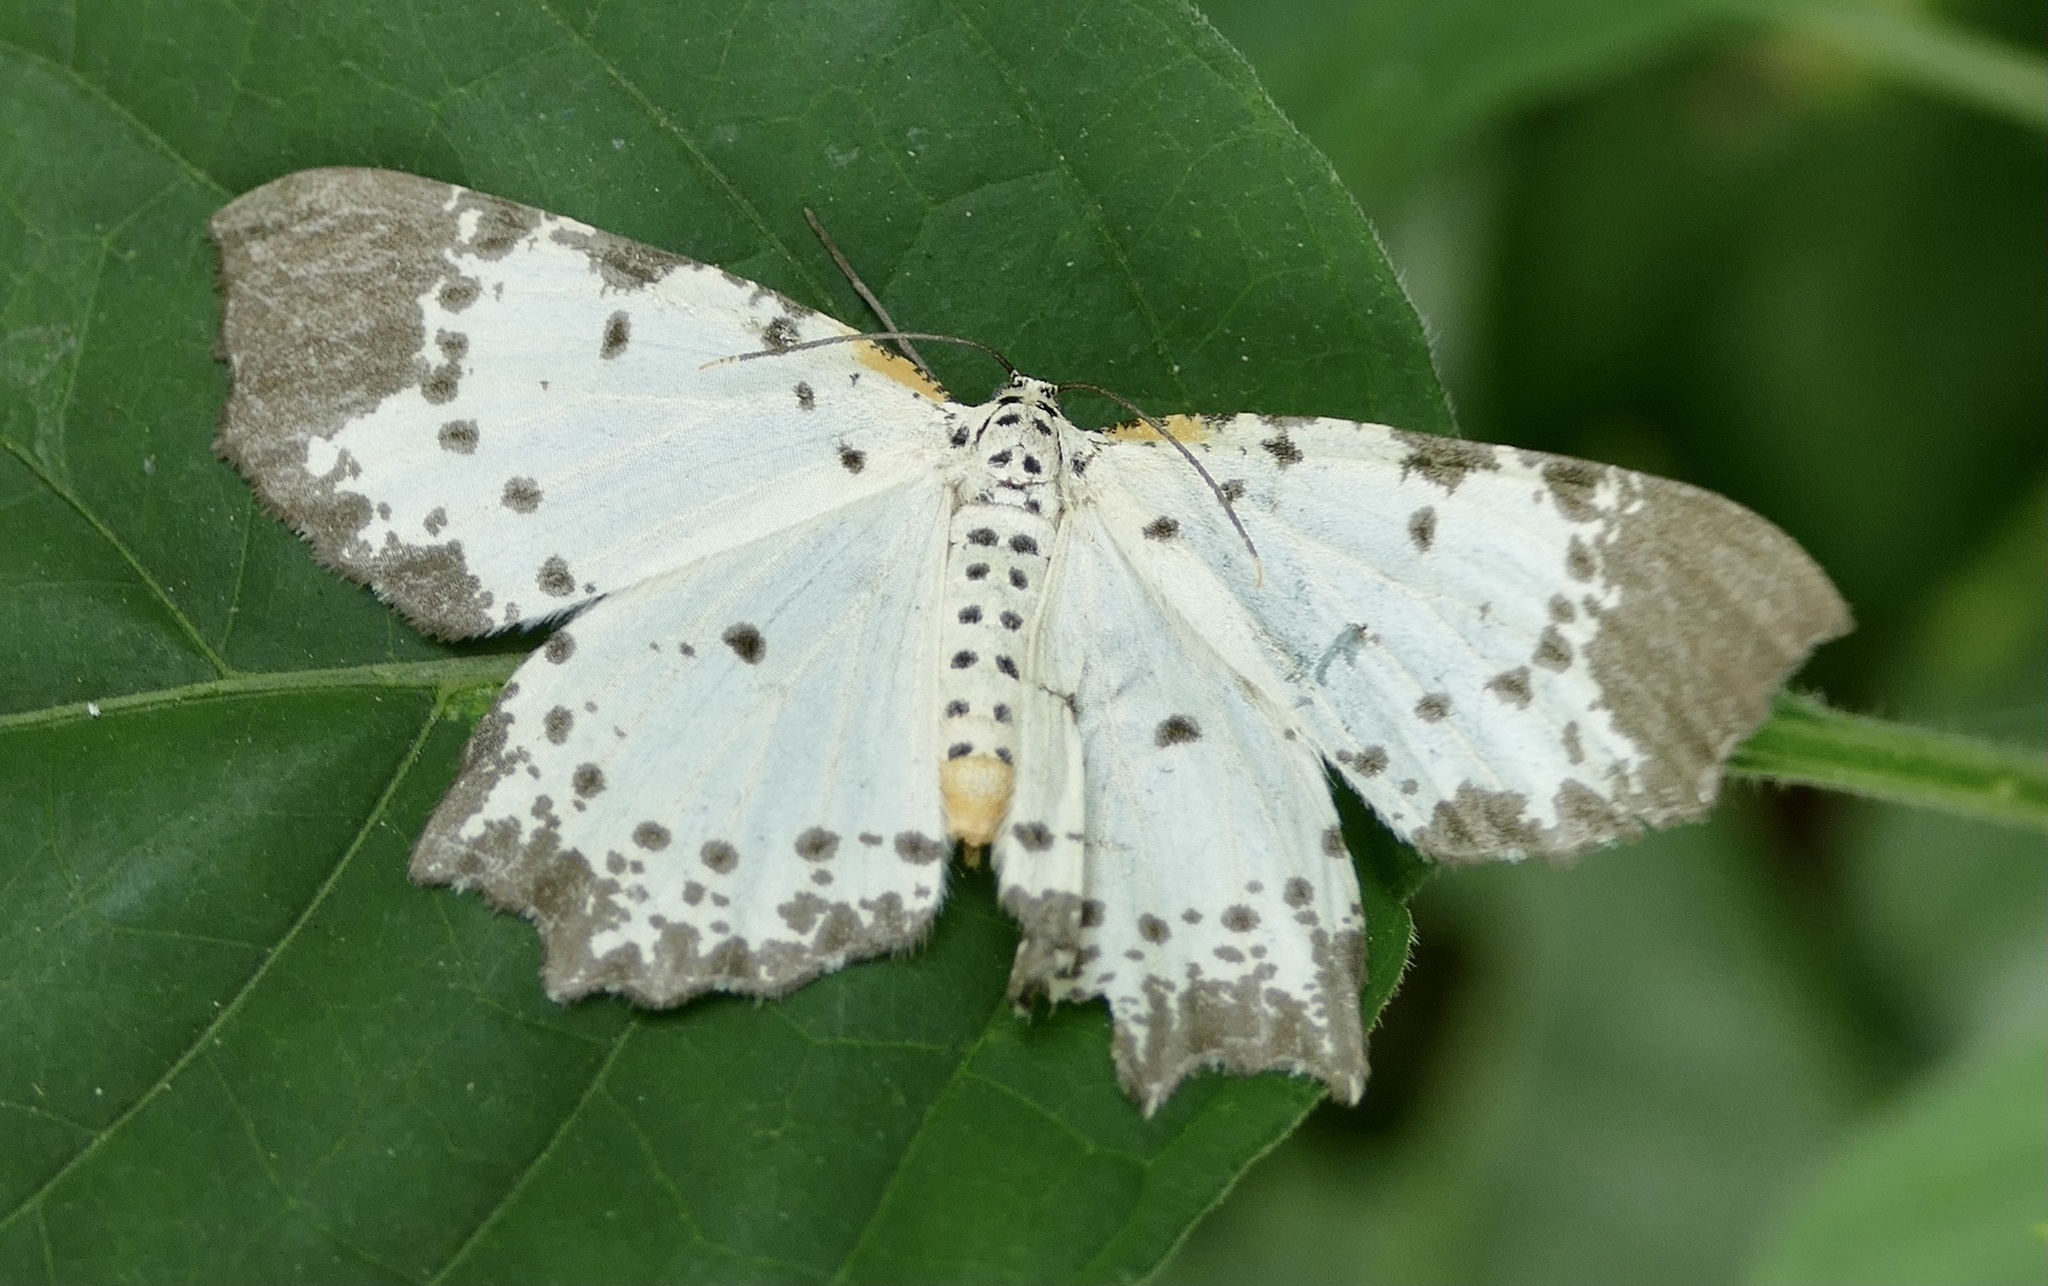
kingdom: Animalia
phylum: Arthropoda
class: Insecta
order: Lepidoptera
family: Geometridae
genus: Narthecusa
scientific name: Narthecusa perplexata
